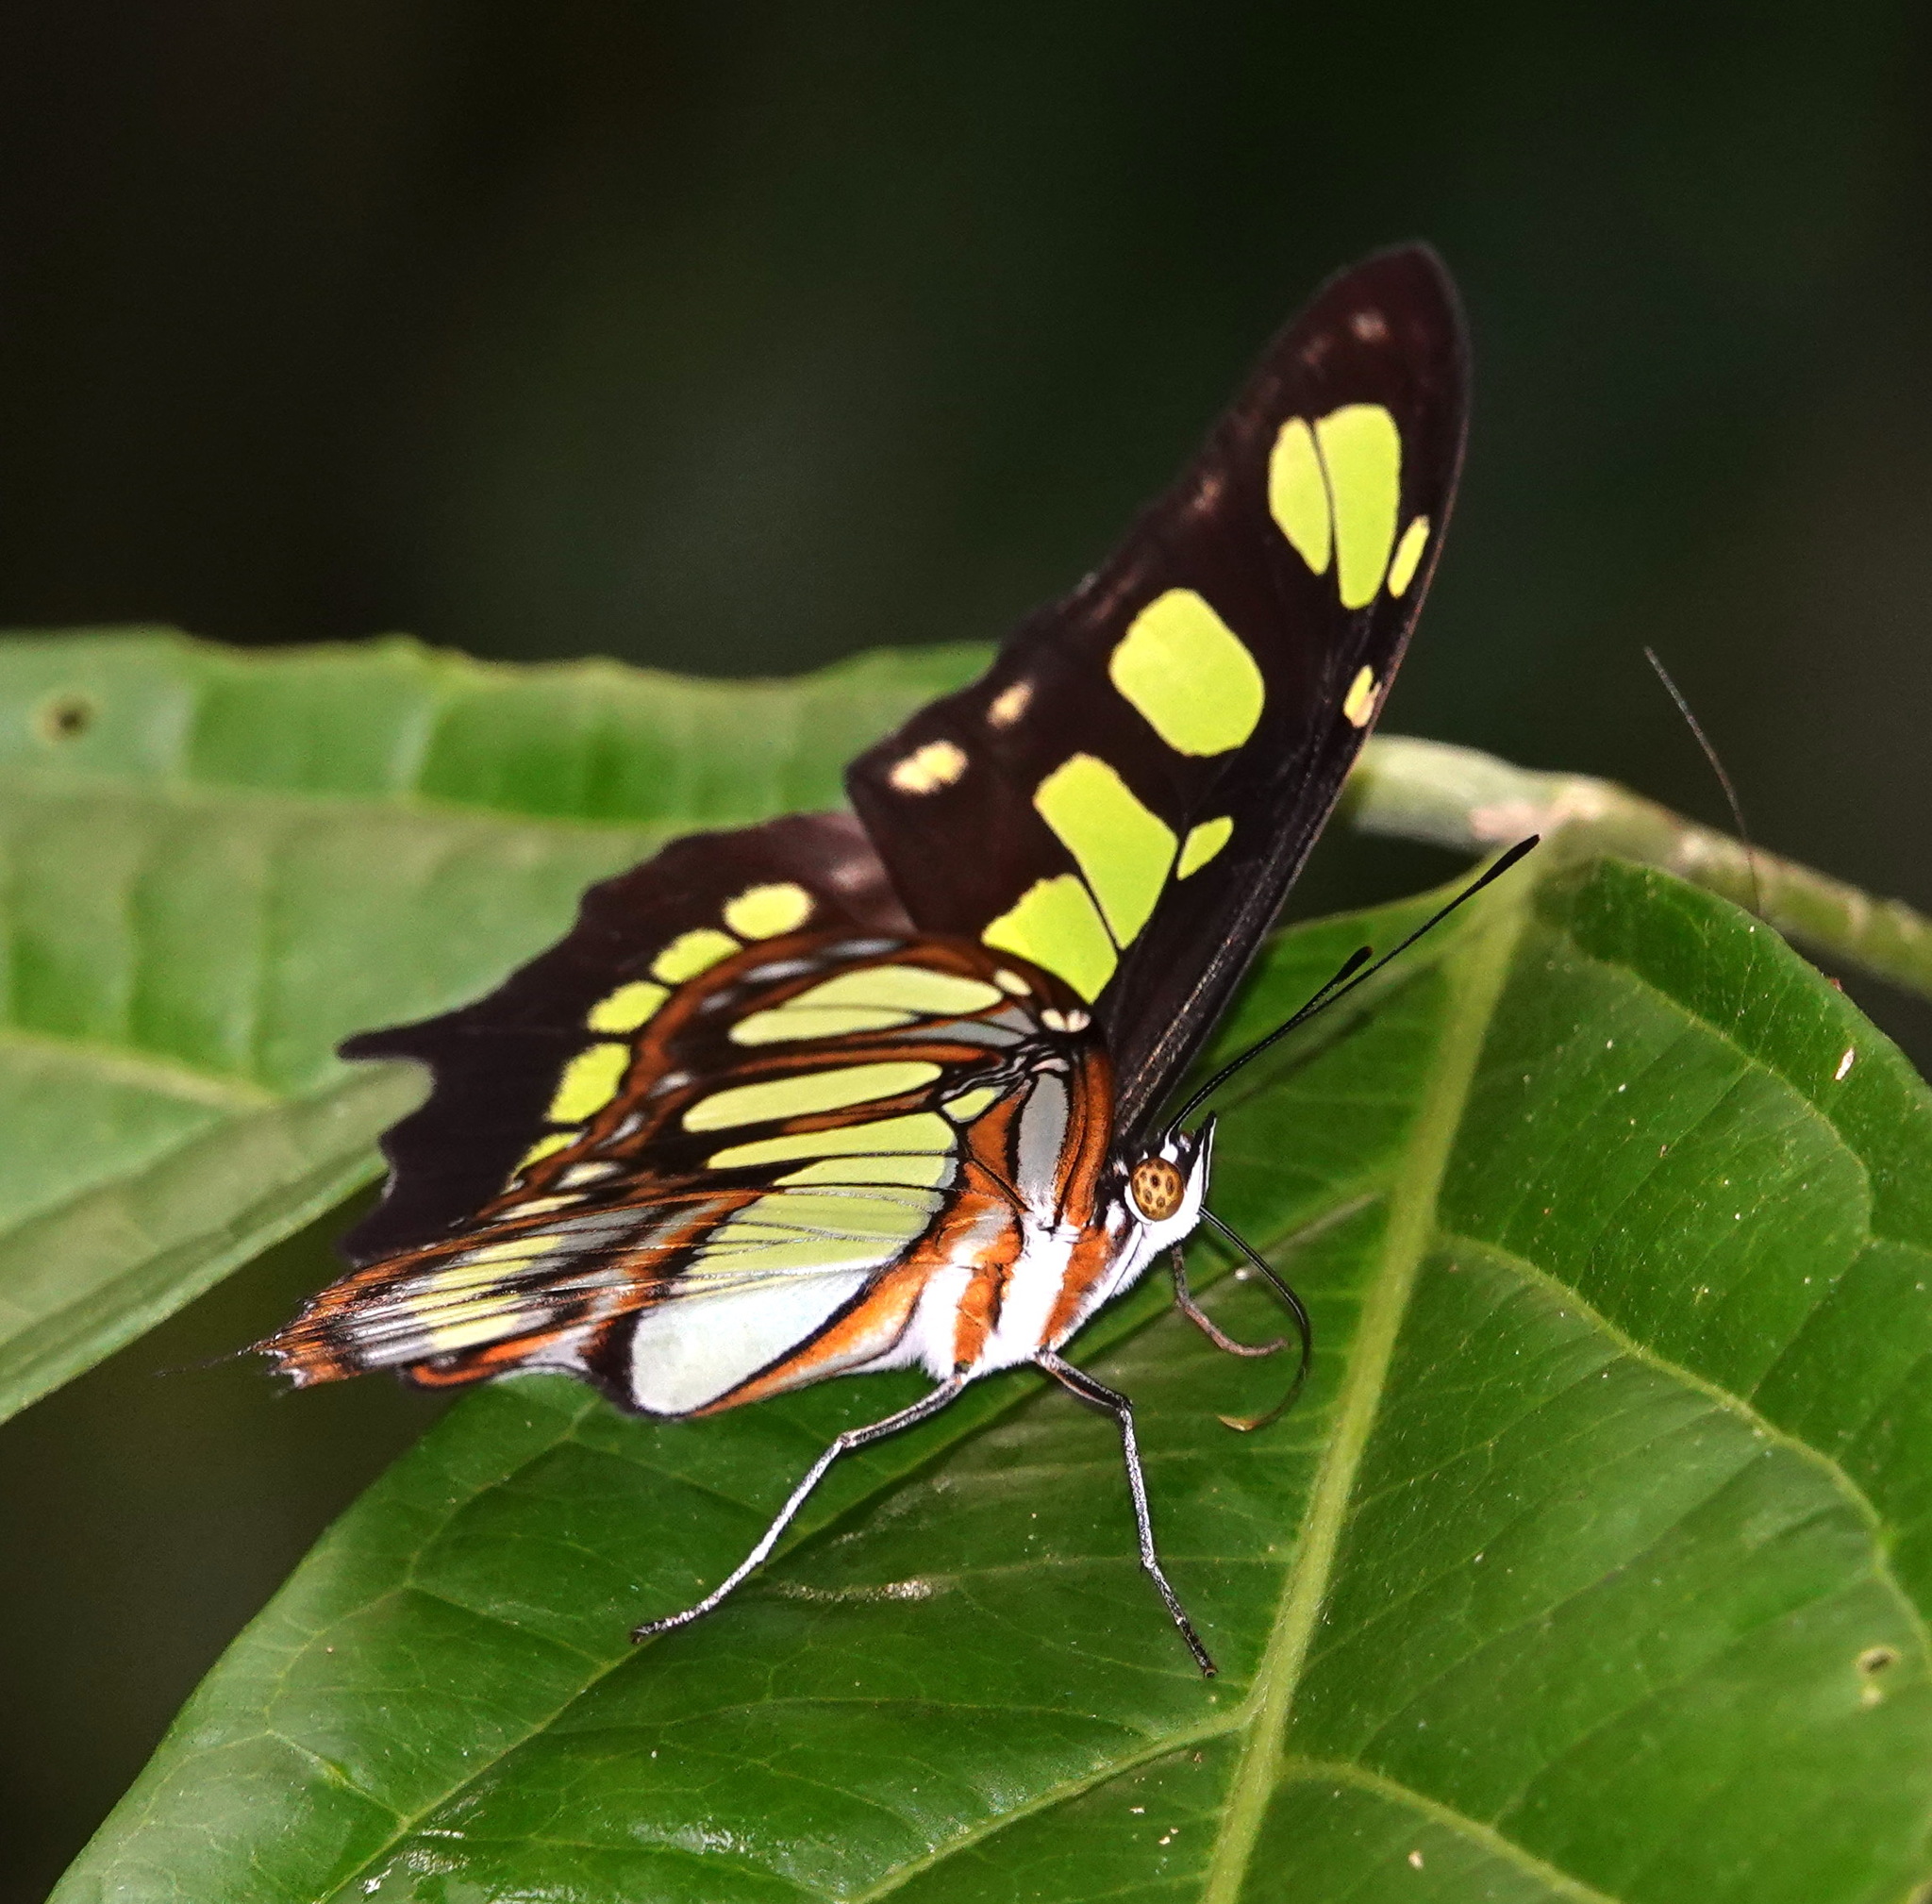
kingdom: Animalia
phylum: Arthropoda
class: Insecta
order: Lepidoptera
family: Nymphalidae
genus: Siproeta
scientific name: Siproeta stelenes
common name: Malachite
